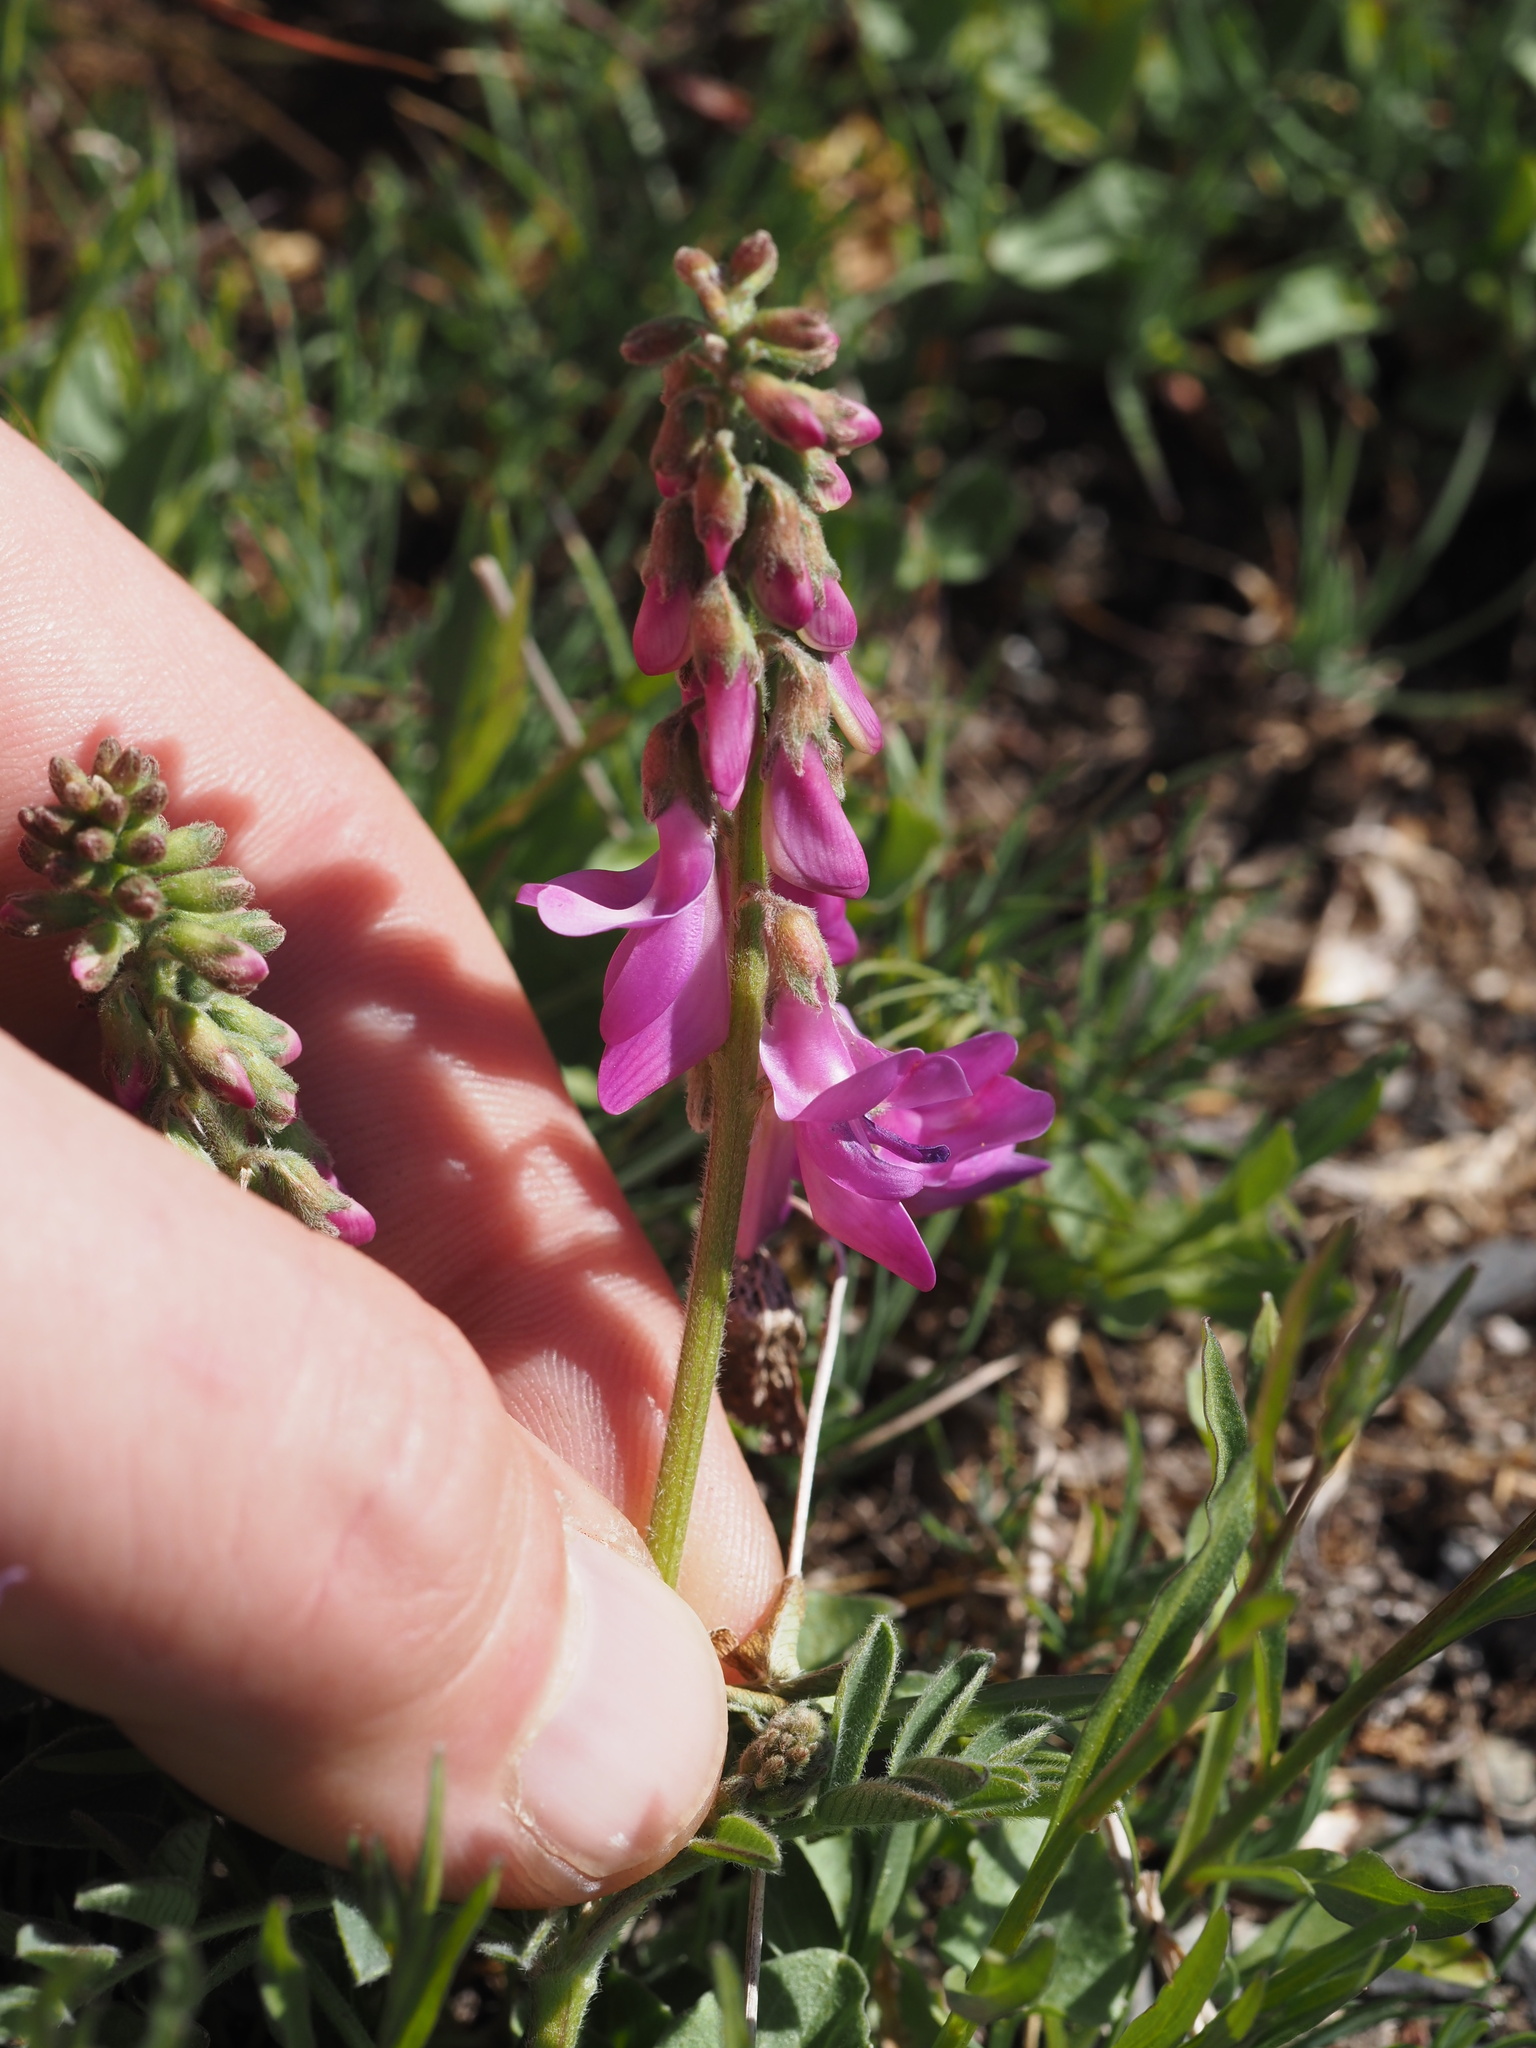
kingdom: Plantae
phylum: Tracheophyta
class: Magnoliopsida
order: Fabales
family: Fabaceae
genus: Hedysarum
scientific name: Hedysarum occidentale
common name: Western hedysarum
